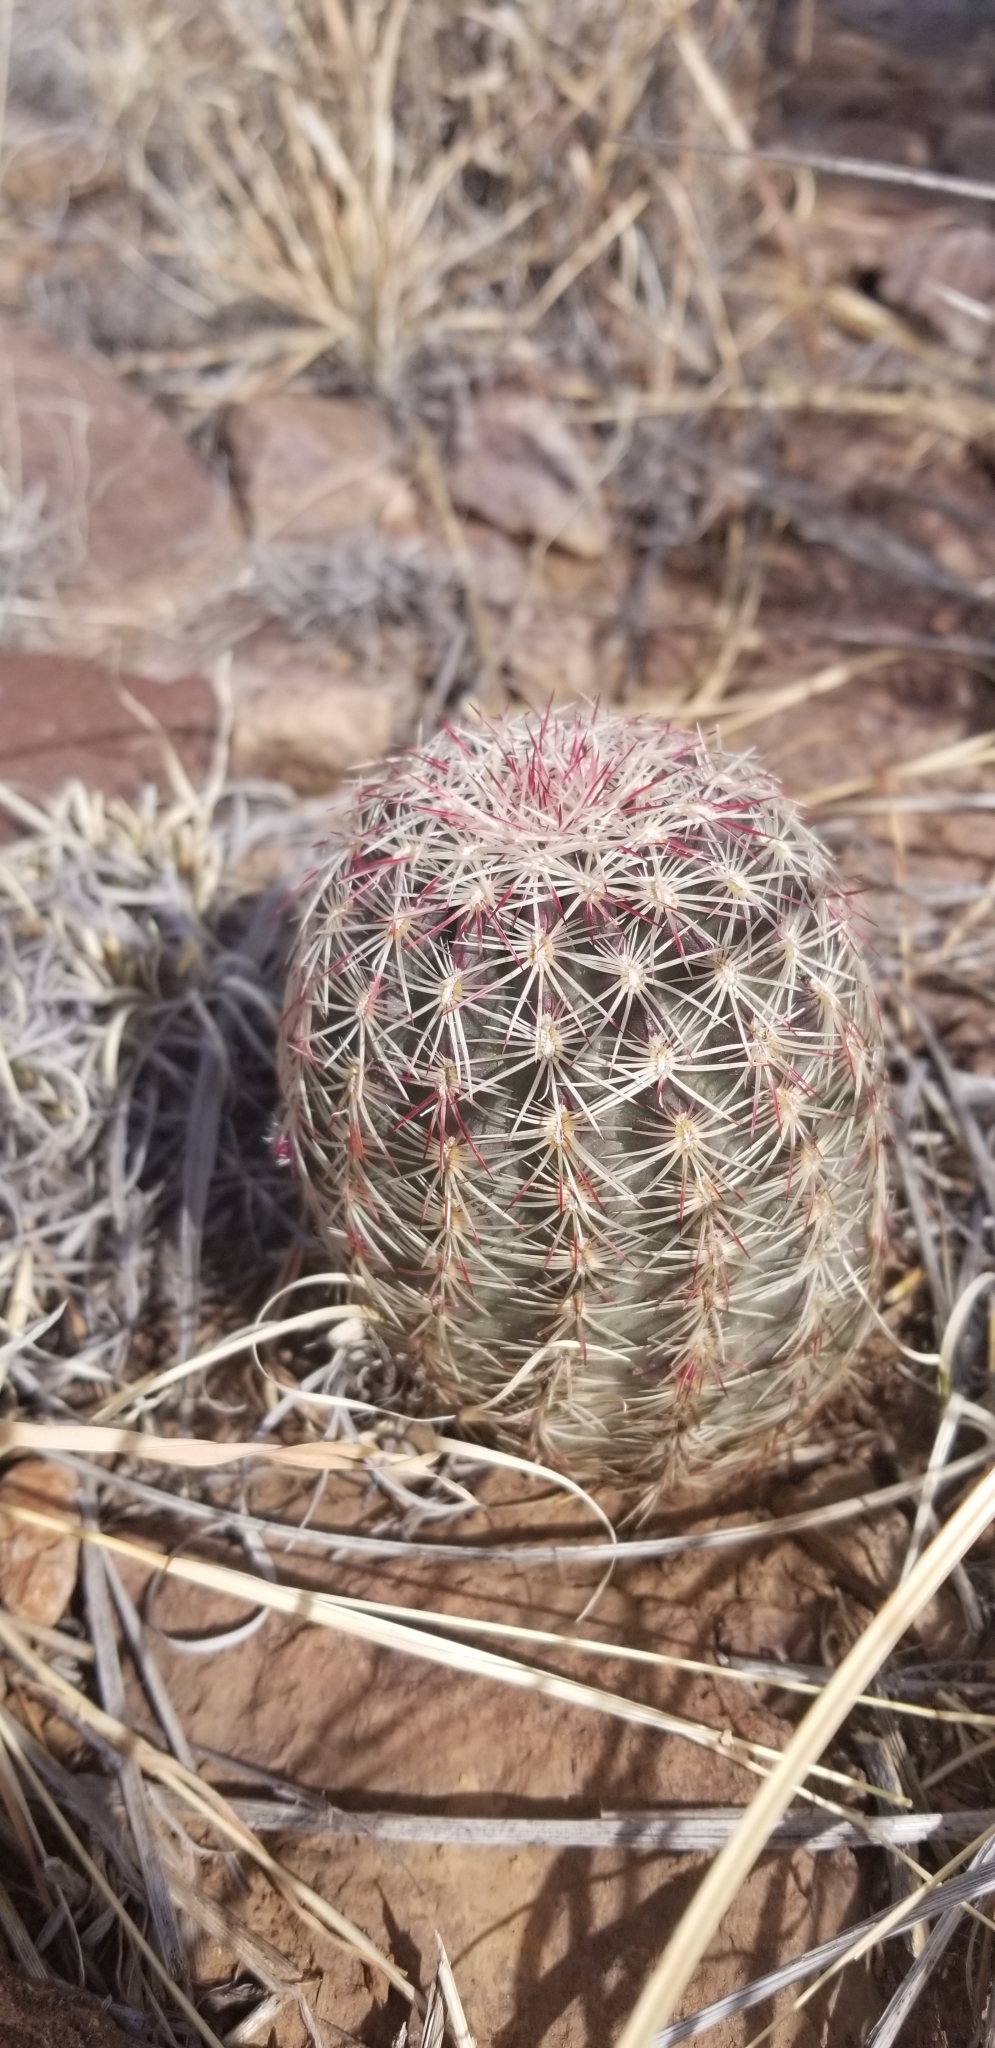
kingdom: Plantae
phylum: Tracheophyta
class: Magnoliopsida
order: Caryophyllales
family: Cactaceae
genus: Echinocereus
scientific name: Echinocereus viridiflorus
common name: Nylon hedgehog cactus
